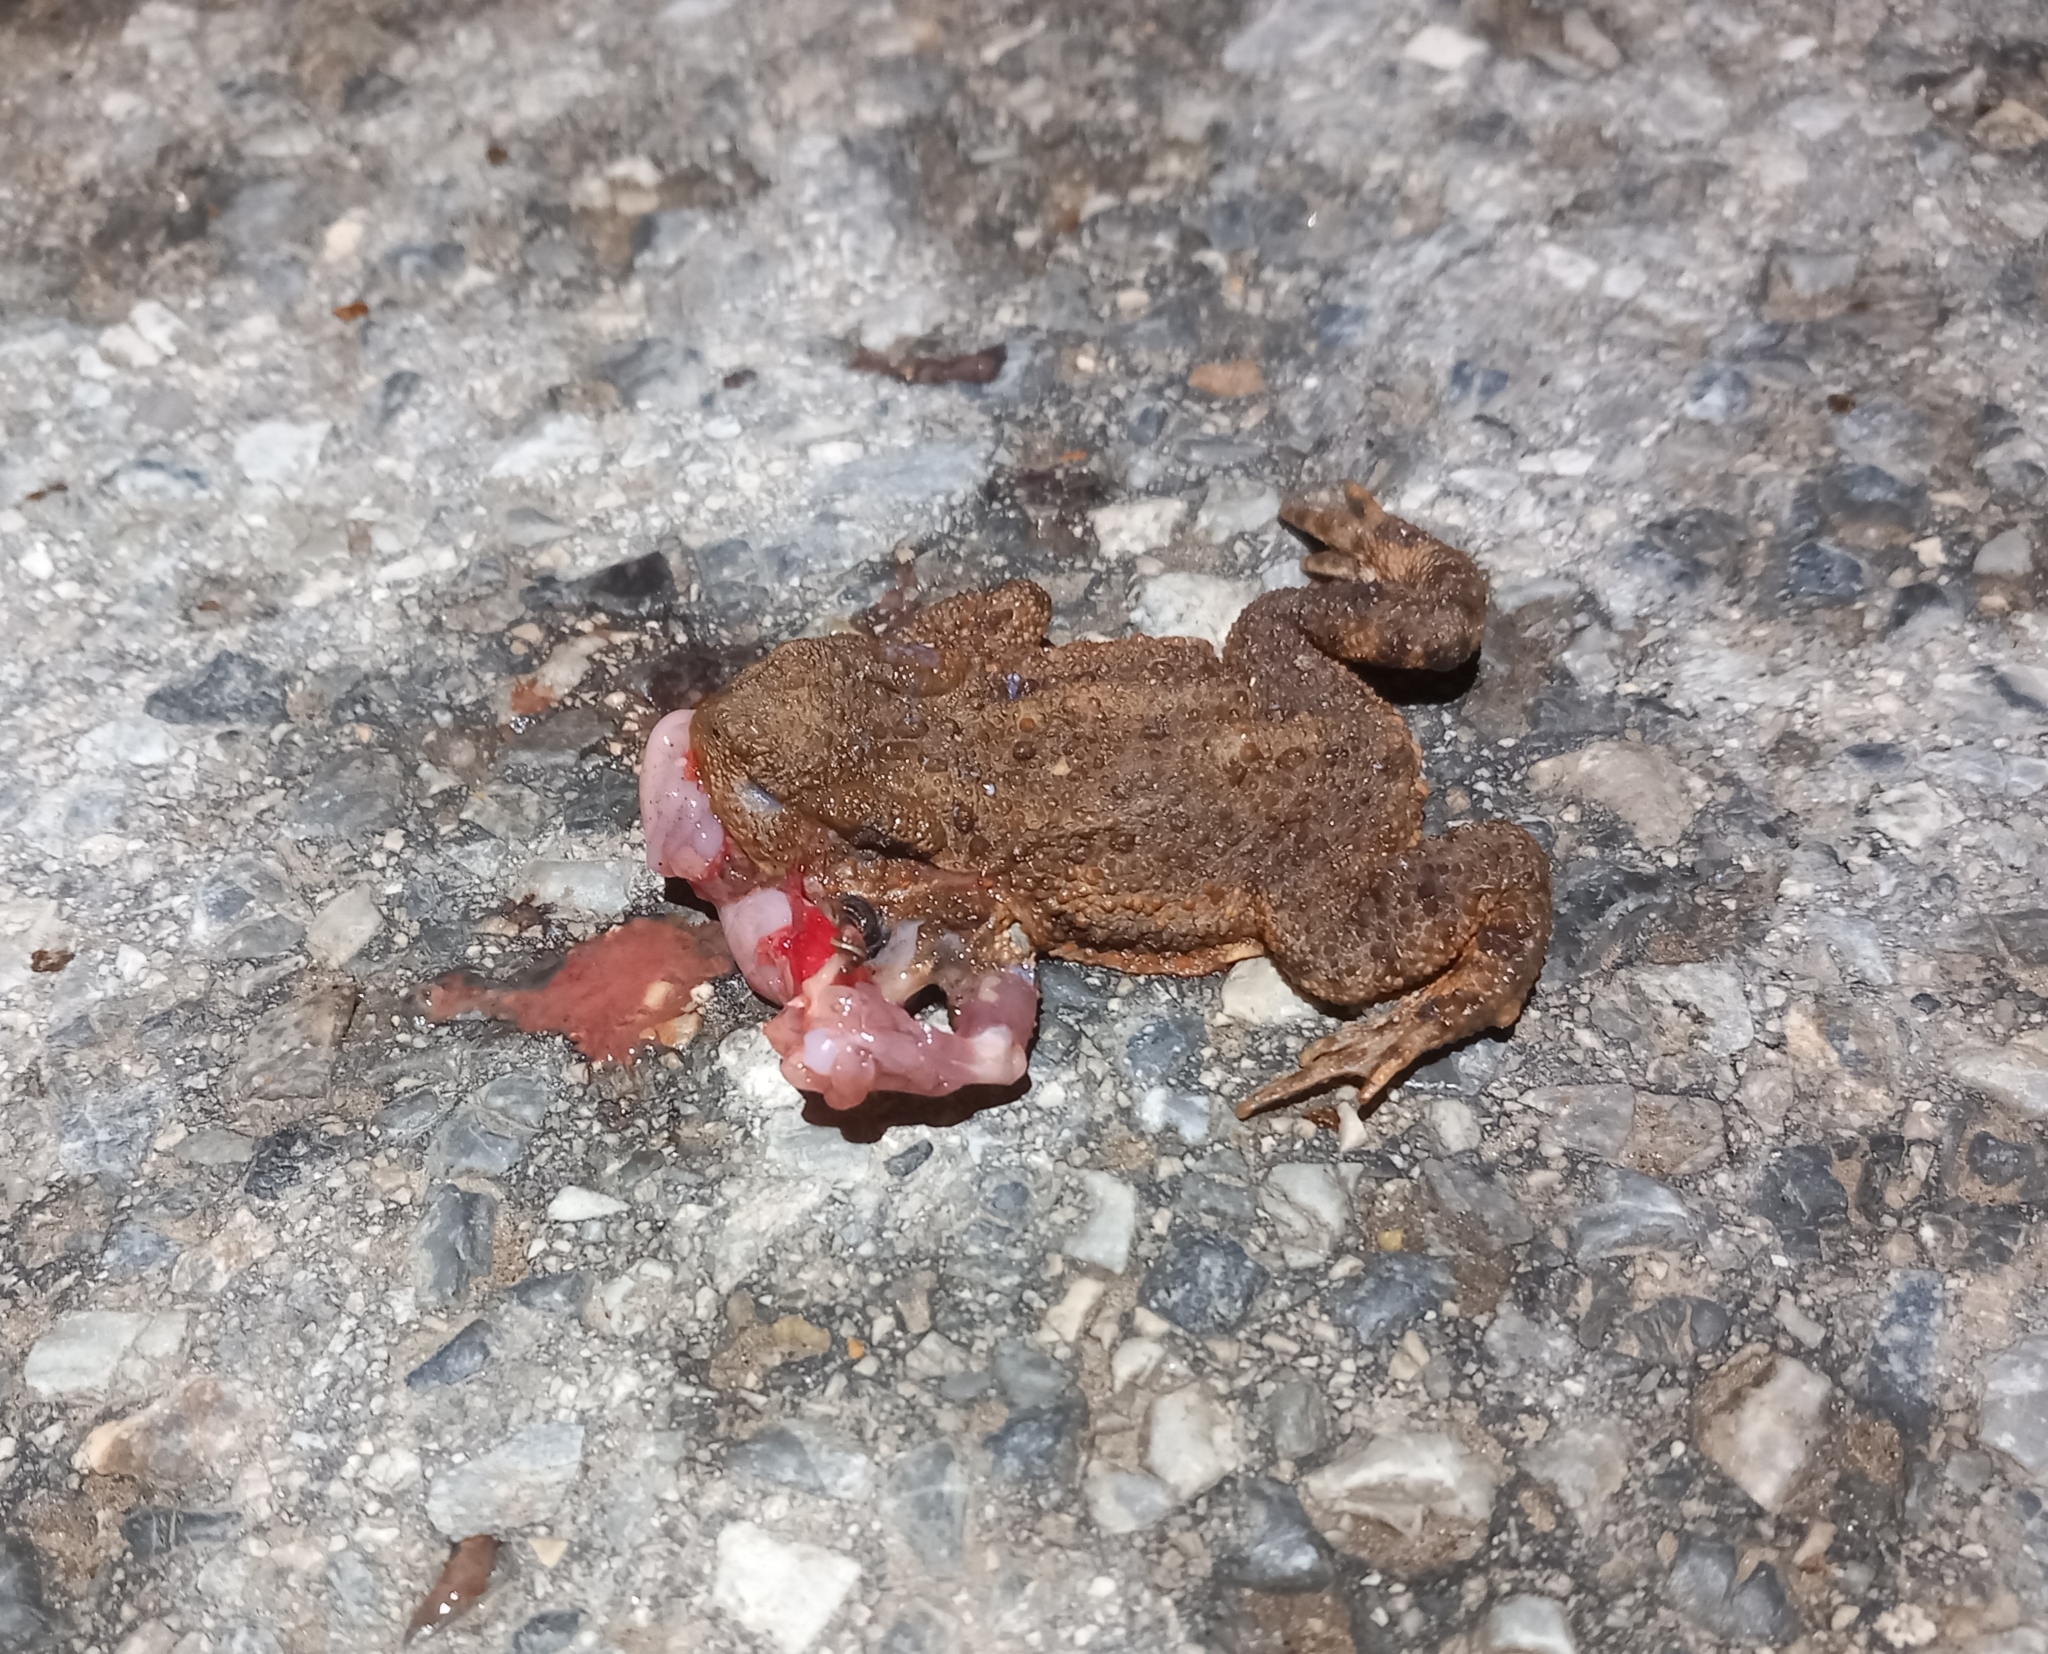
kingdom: Animalia
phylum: Chordata
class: Amphibia
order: Anura
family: Bufonidae
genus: Bufo
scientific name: Bufo bufo
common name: Common toad
